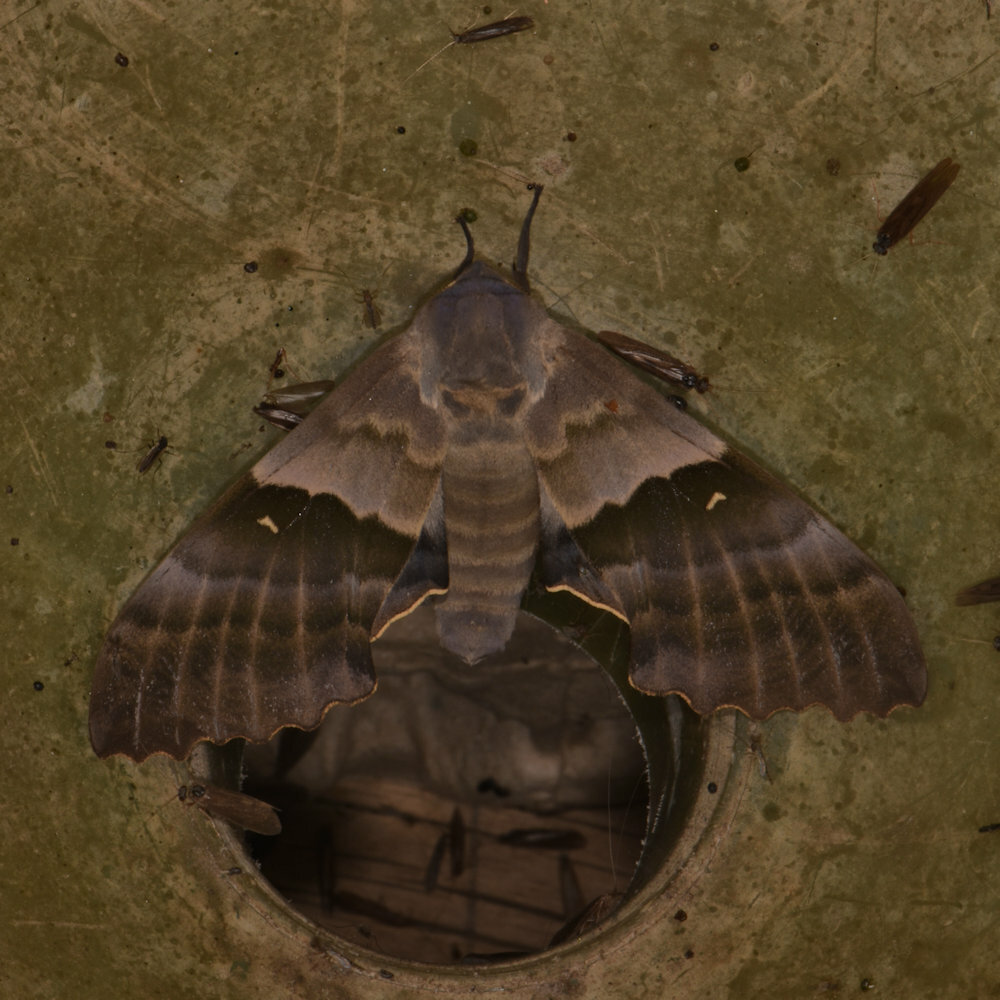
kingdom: Animalia
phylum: Arthropoda
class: Insecta
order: Lepidoptera
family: Sphingidae
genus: Pachysphinx
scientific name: Pachysphinx modesta
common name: Big poplar sphinx
